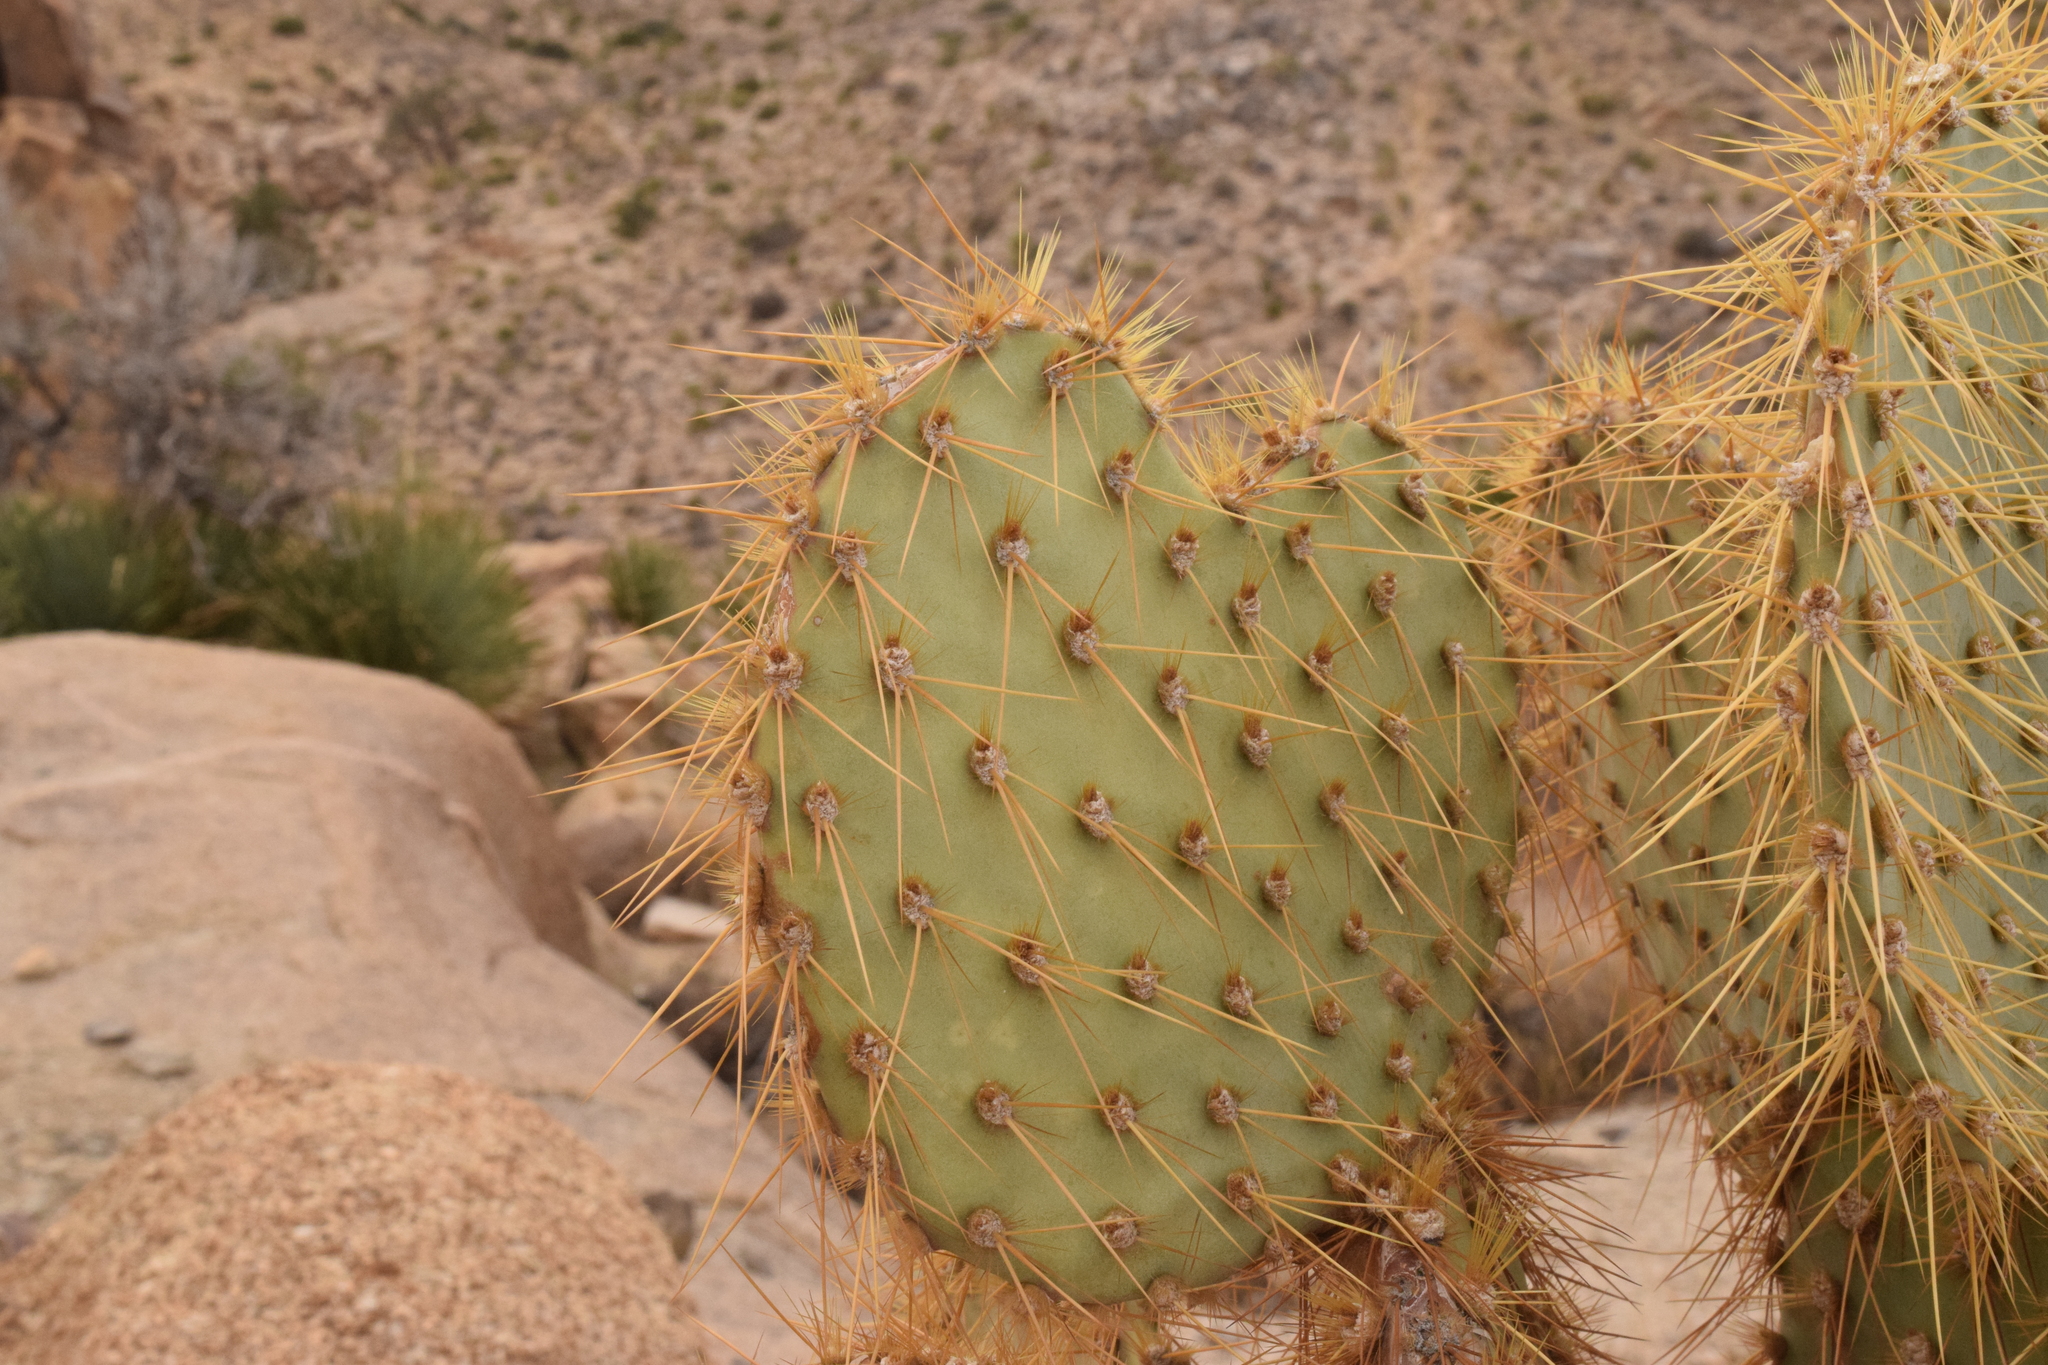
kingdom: Plantae
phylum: Tracheophyta
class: Magnoliopsida
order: Caryophyllales
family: Cactaceae
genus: Opuntia
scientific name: Opuntia chlorotica
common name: Dollar-joint prickly-pear
